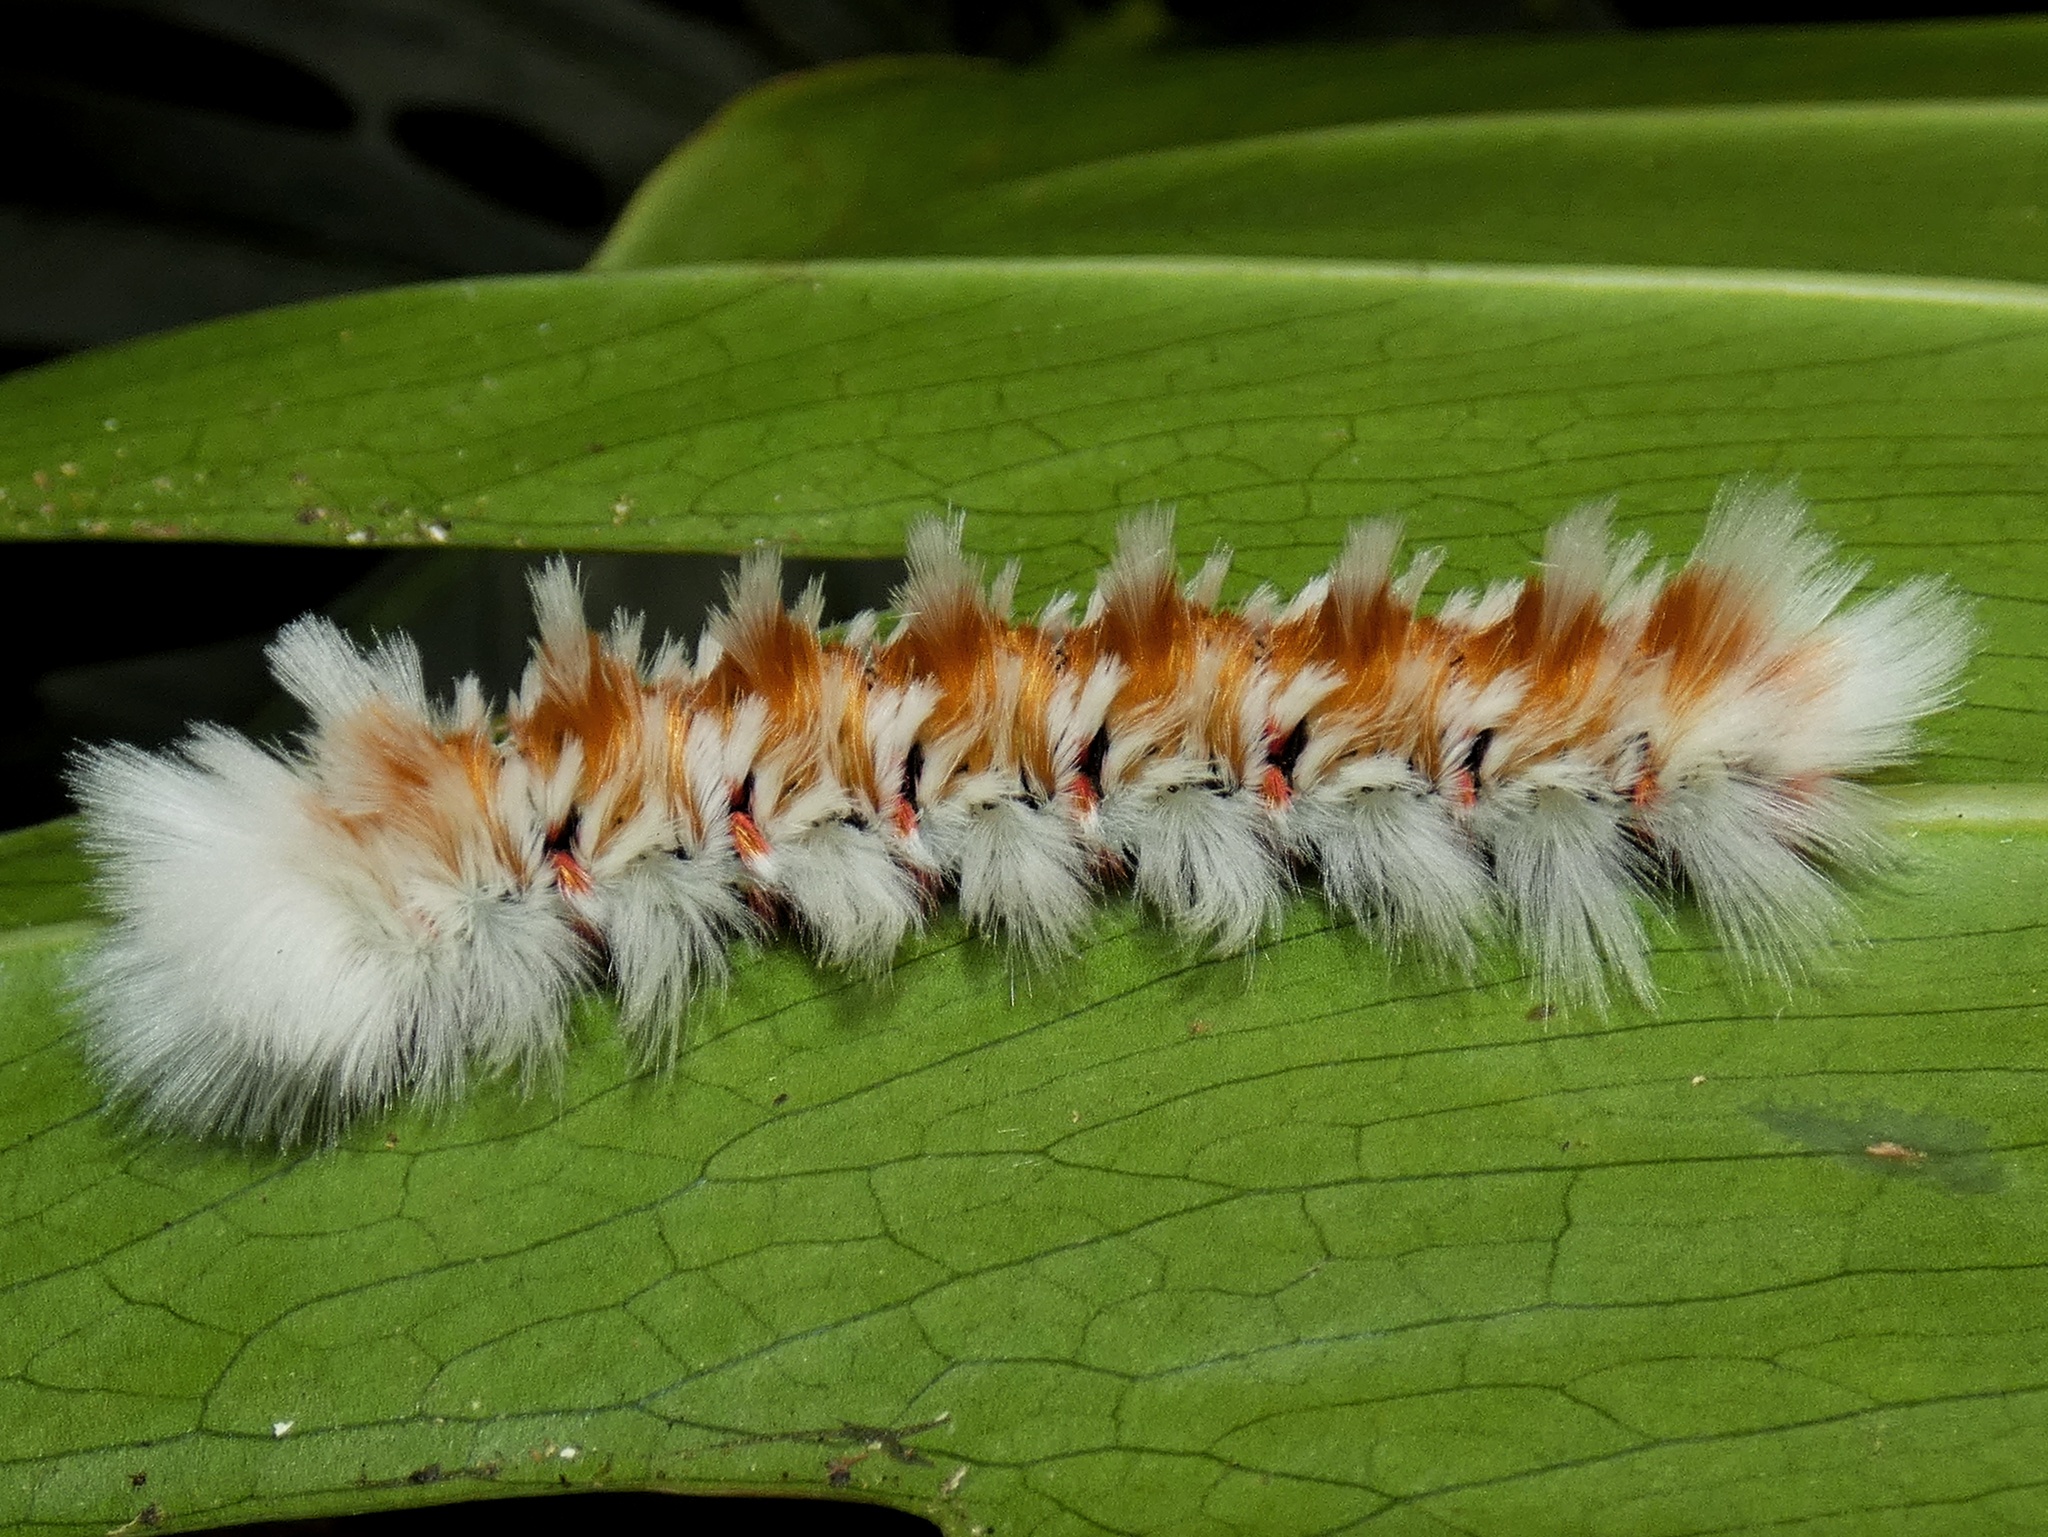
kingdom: Animalia
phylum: Arthropoda
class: Insecta
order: Lepidoptera
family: Eupterotidae
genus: Neopreptos
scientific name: Neopreptos marathusa
